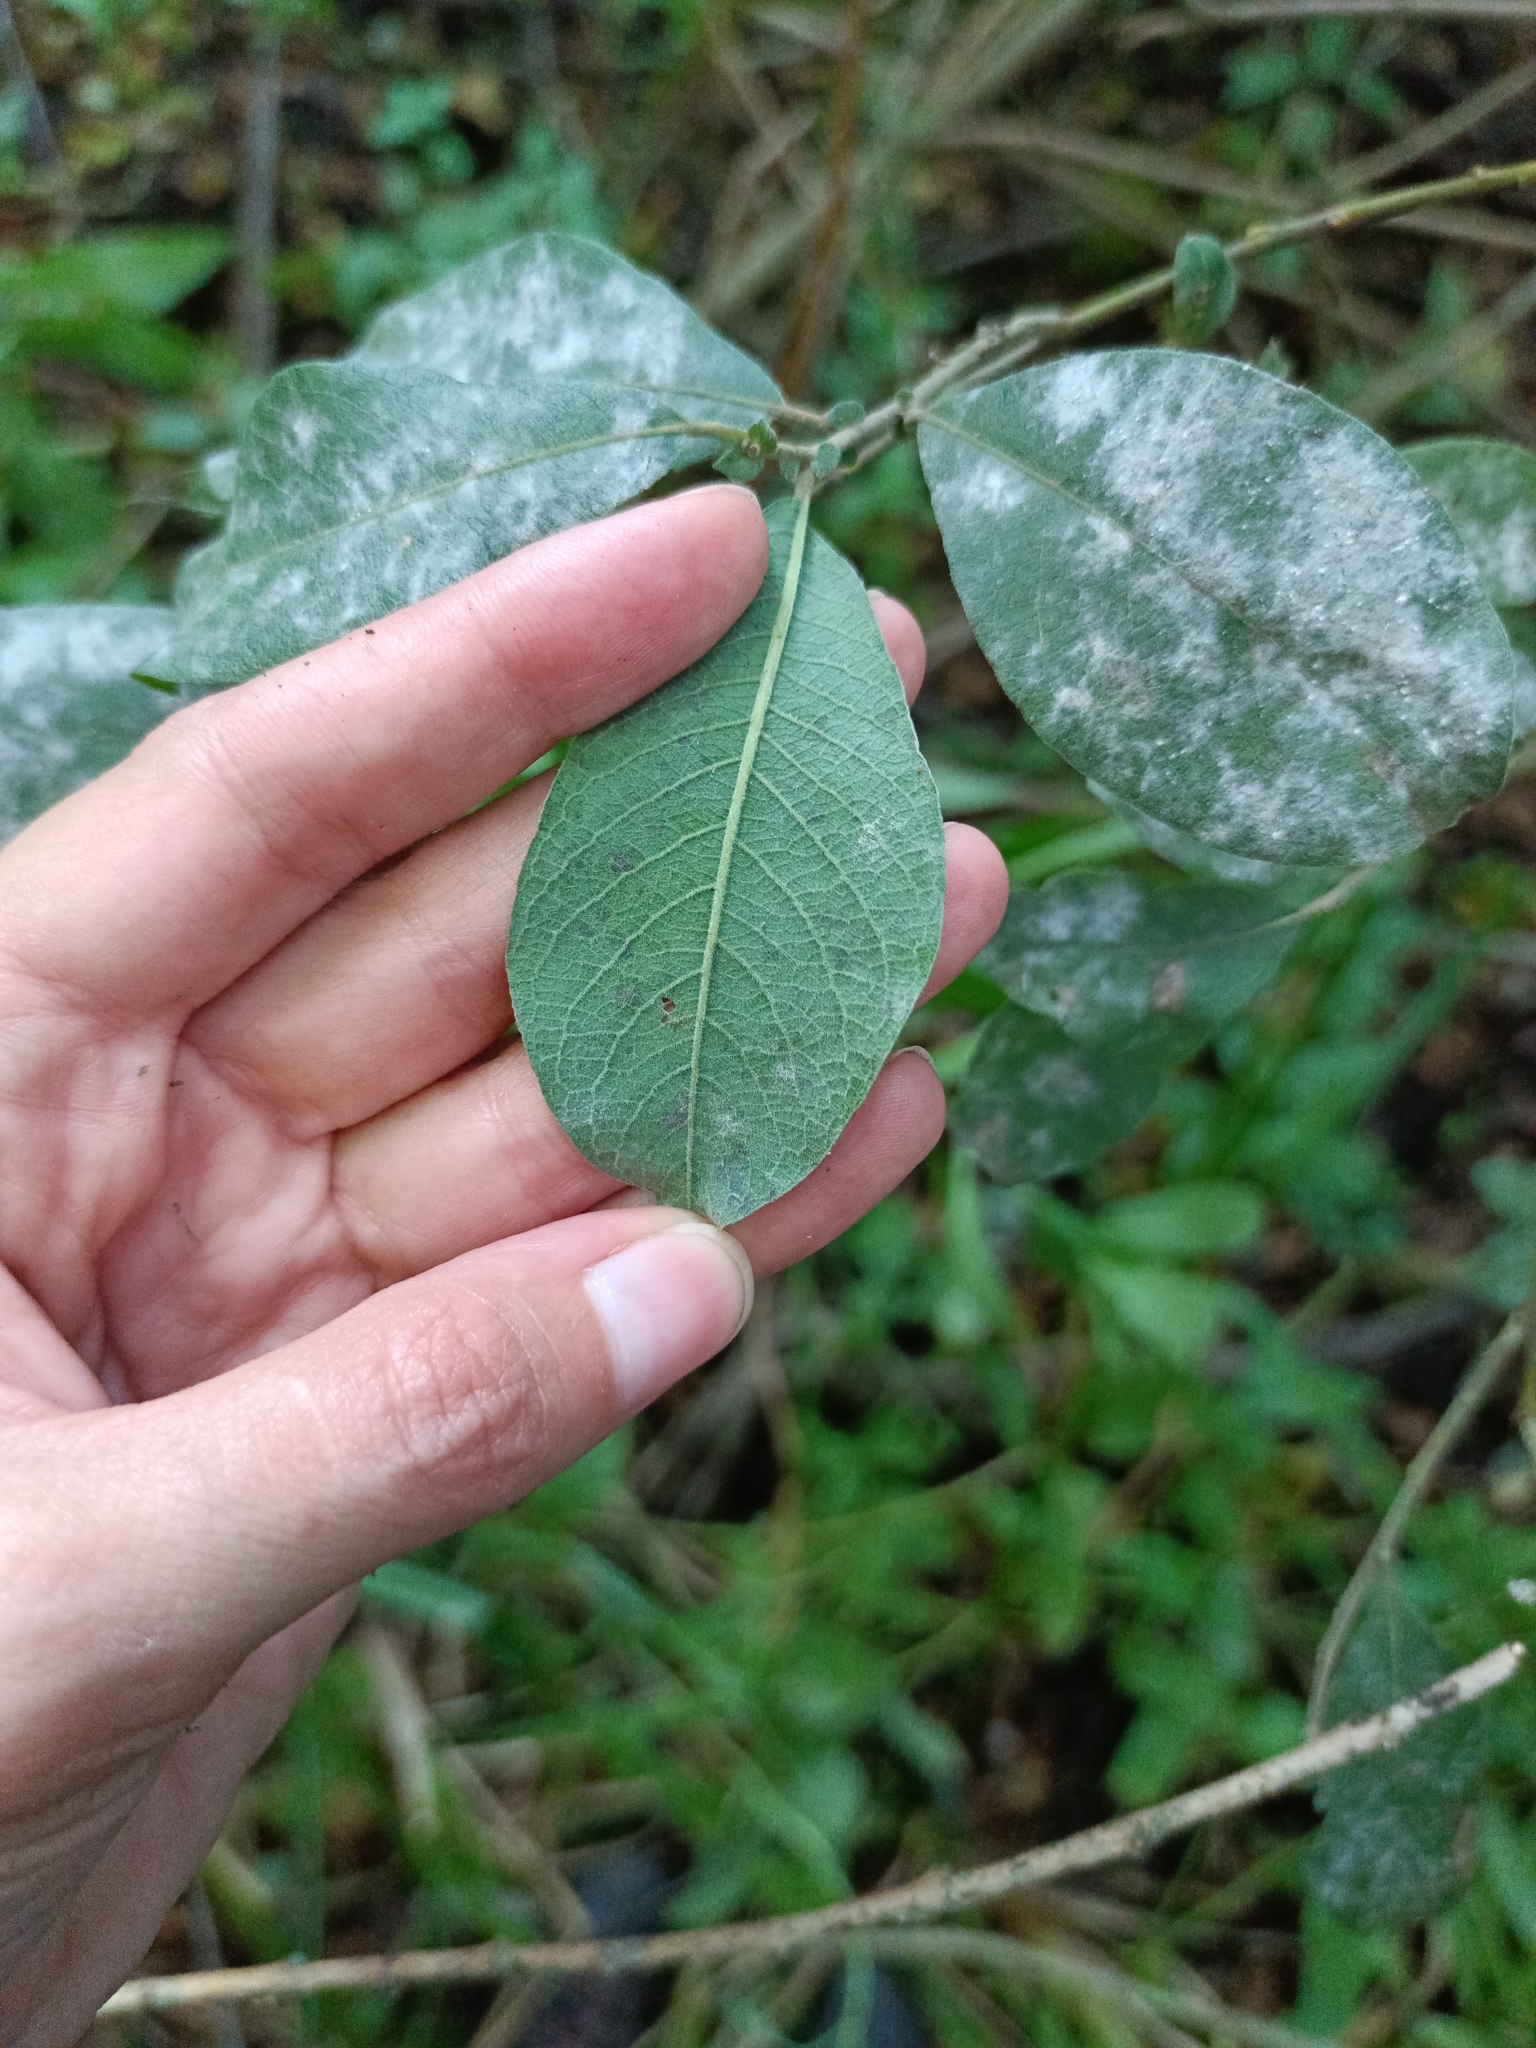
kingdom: Fungi
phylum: Ascomycota
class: Leotiomycetes
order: Helotiales
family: Erysiphaceae
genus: Erysiphe
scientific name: Erysiphe capreae
